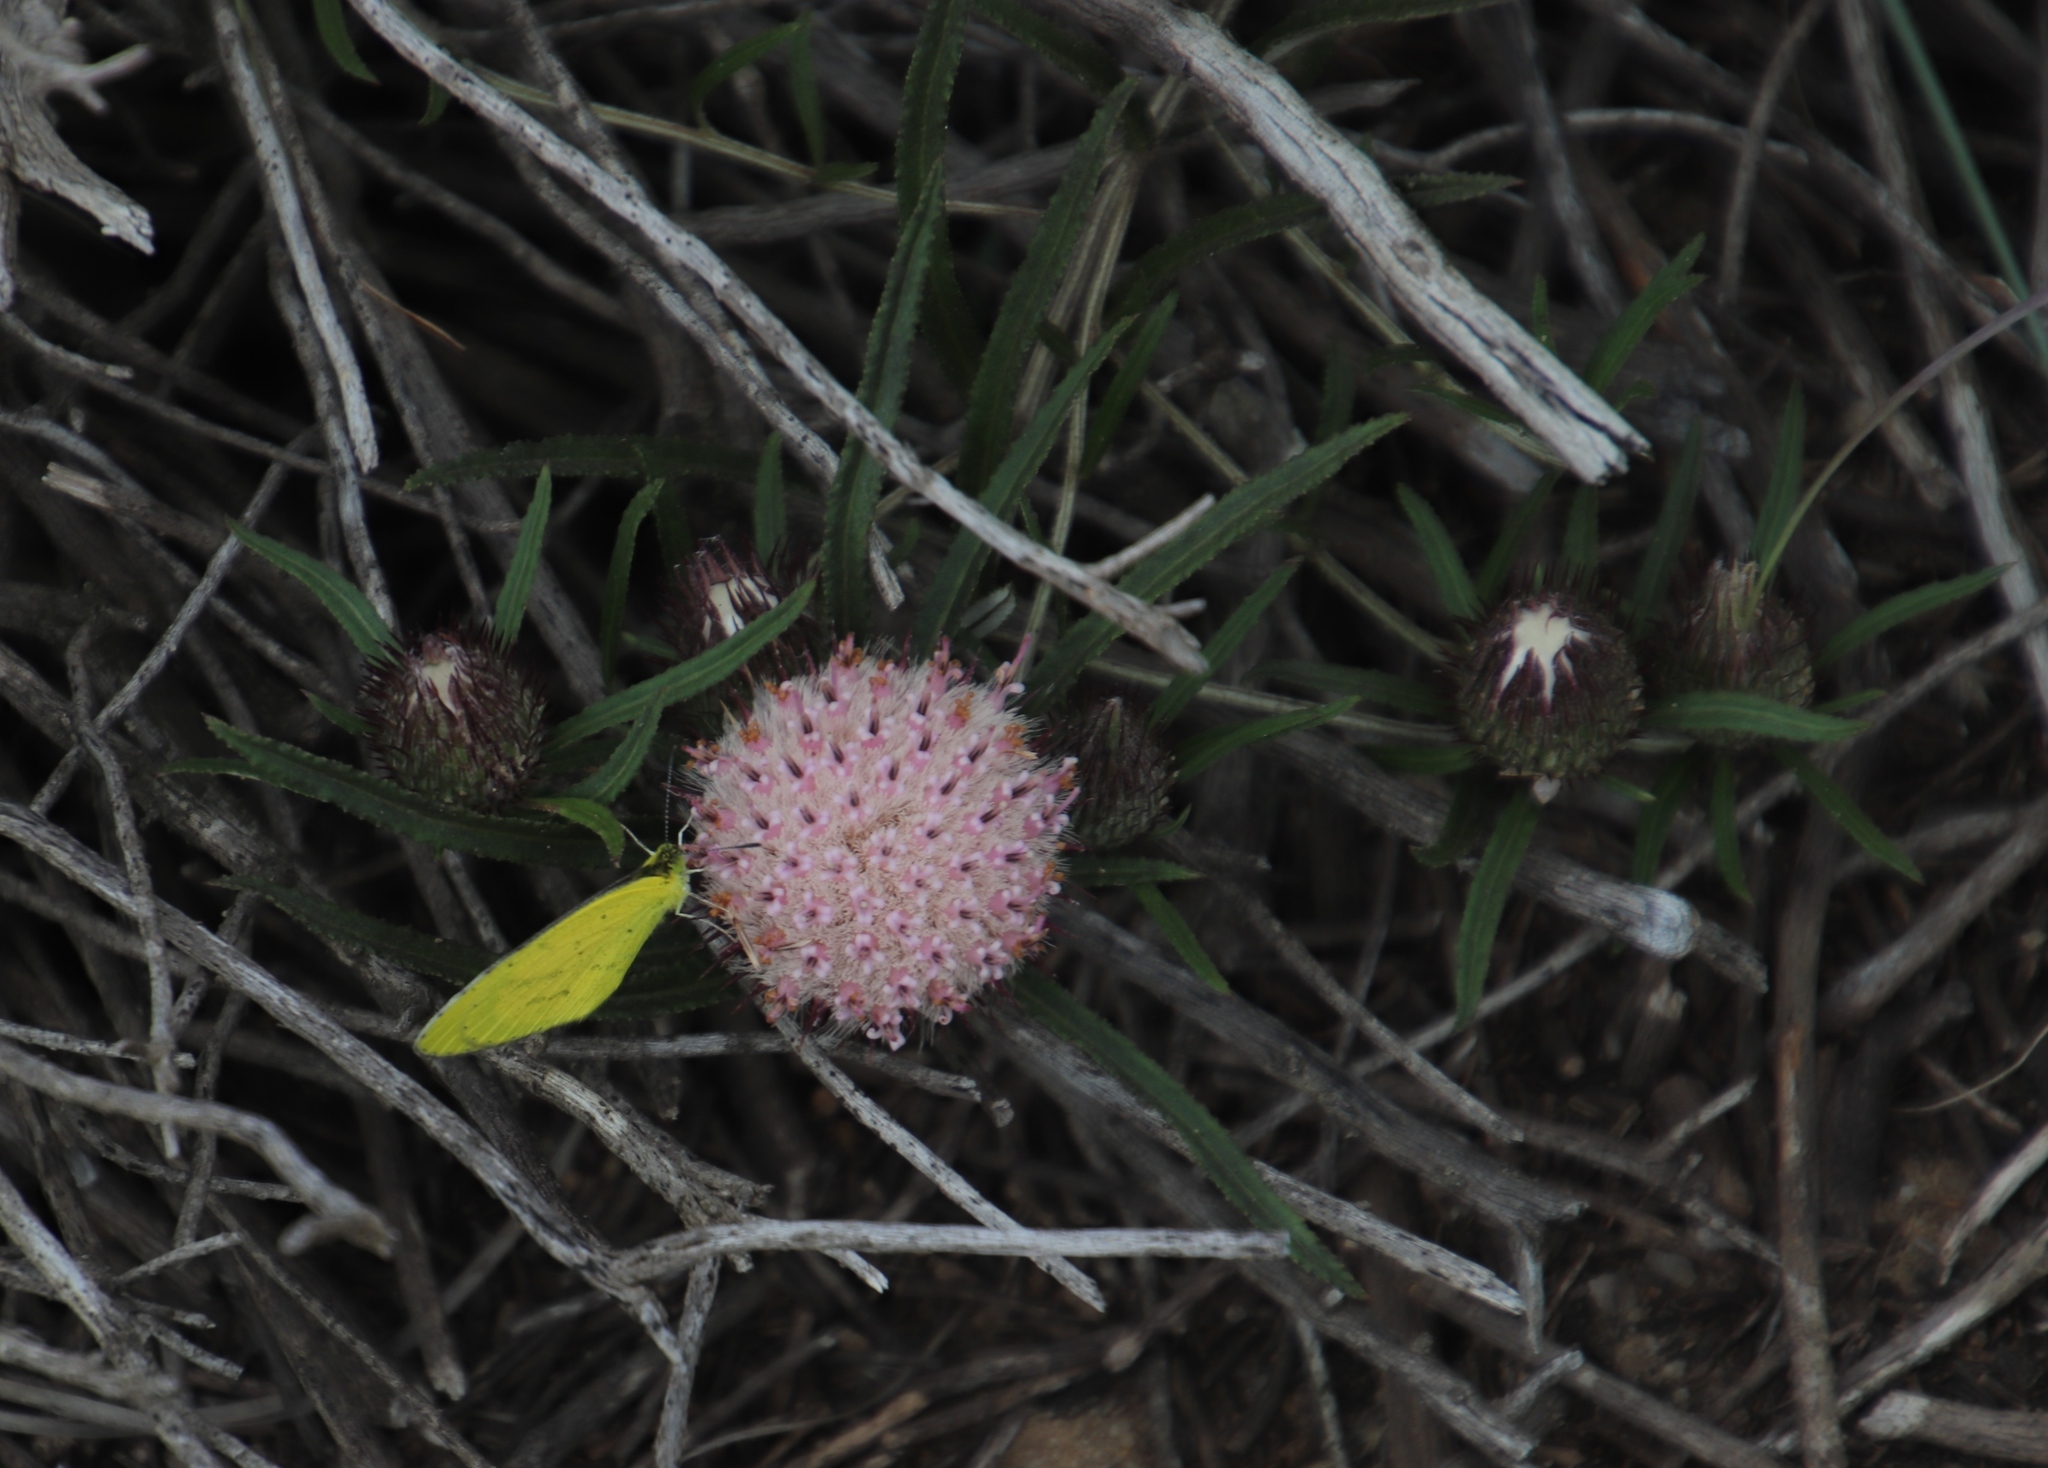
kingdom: Plantae
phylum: Tracheophyta
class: Magnoliopsida
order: Asterales
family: Asteraceae
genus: Dicoma
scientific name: Dicoma anomala
